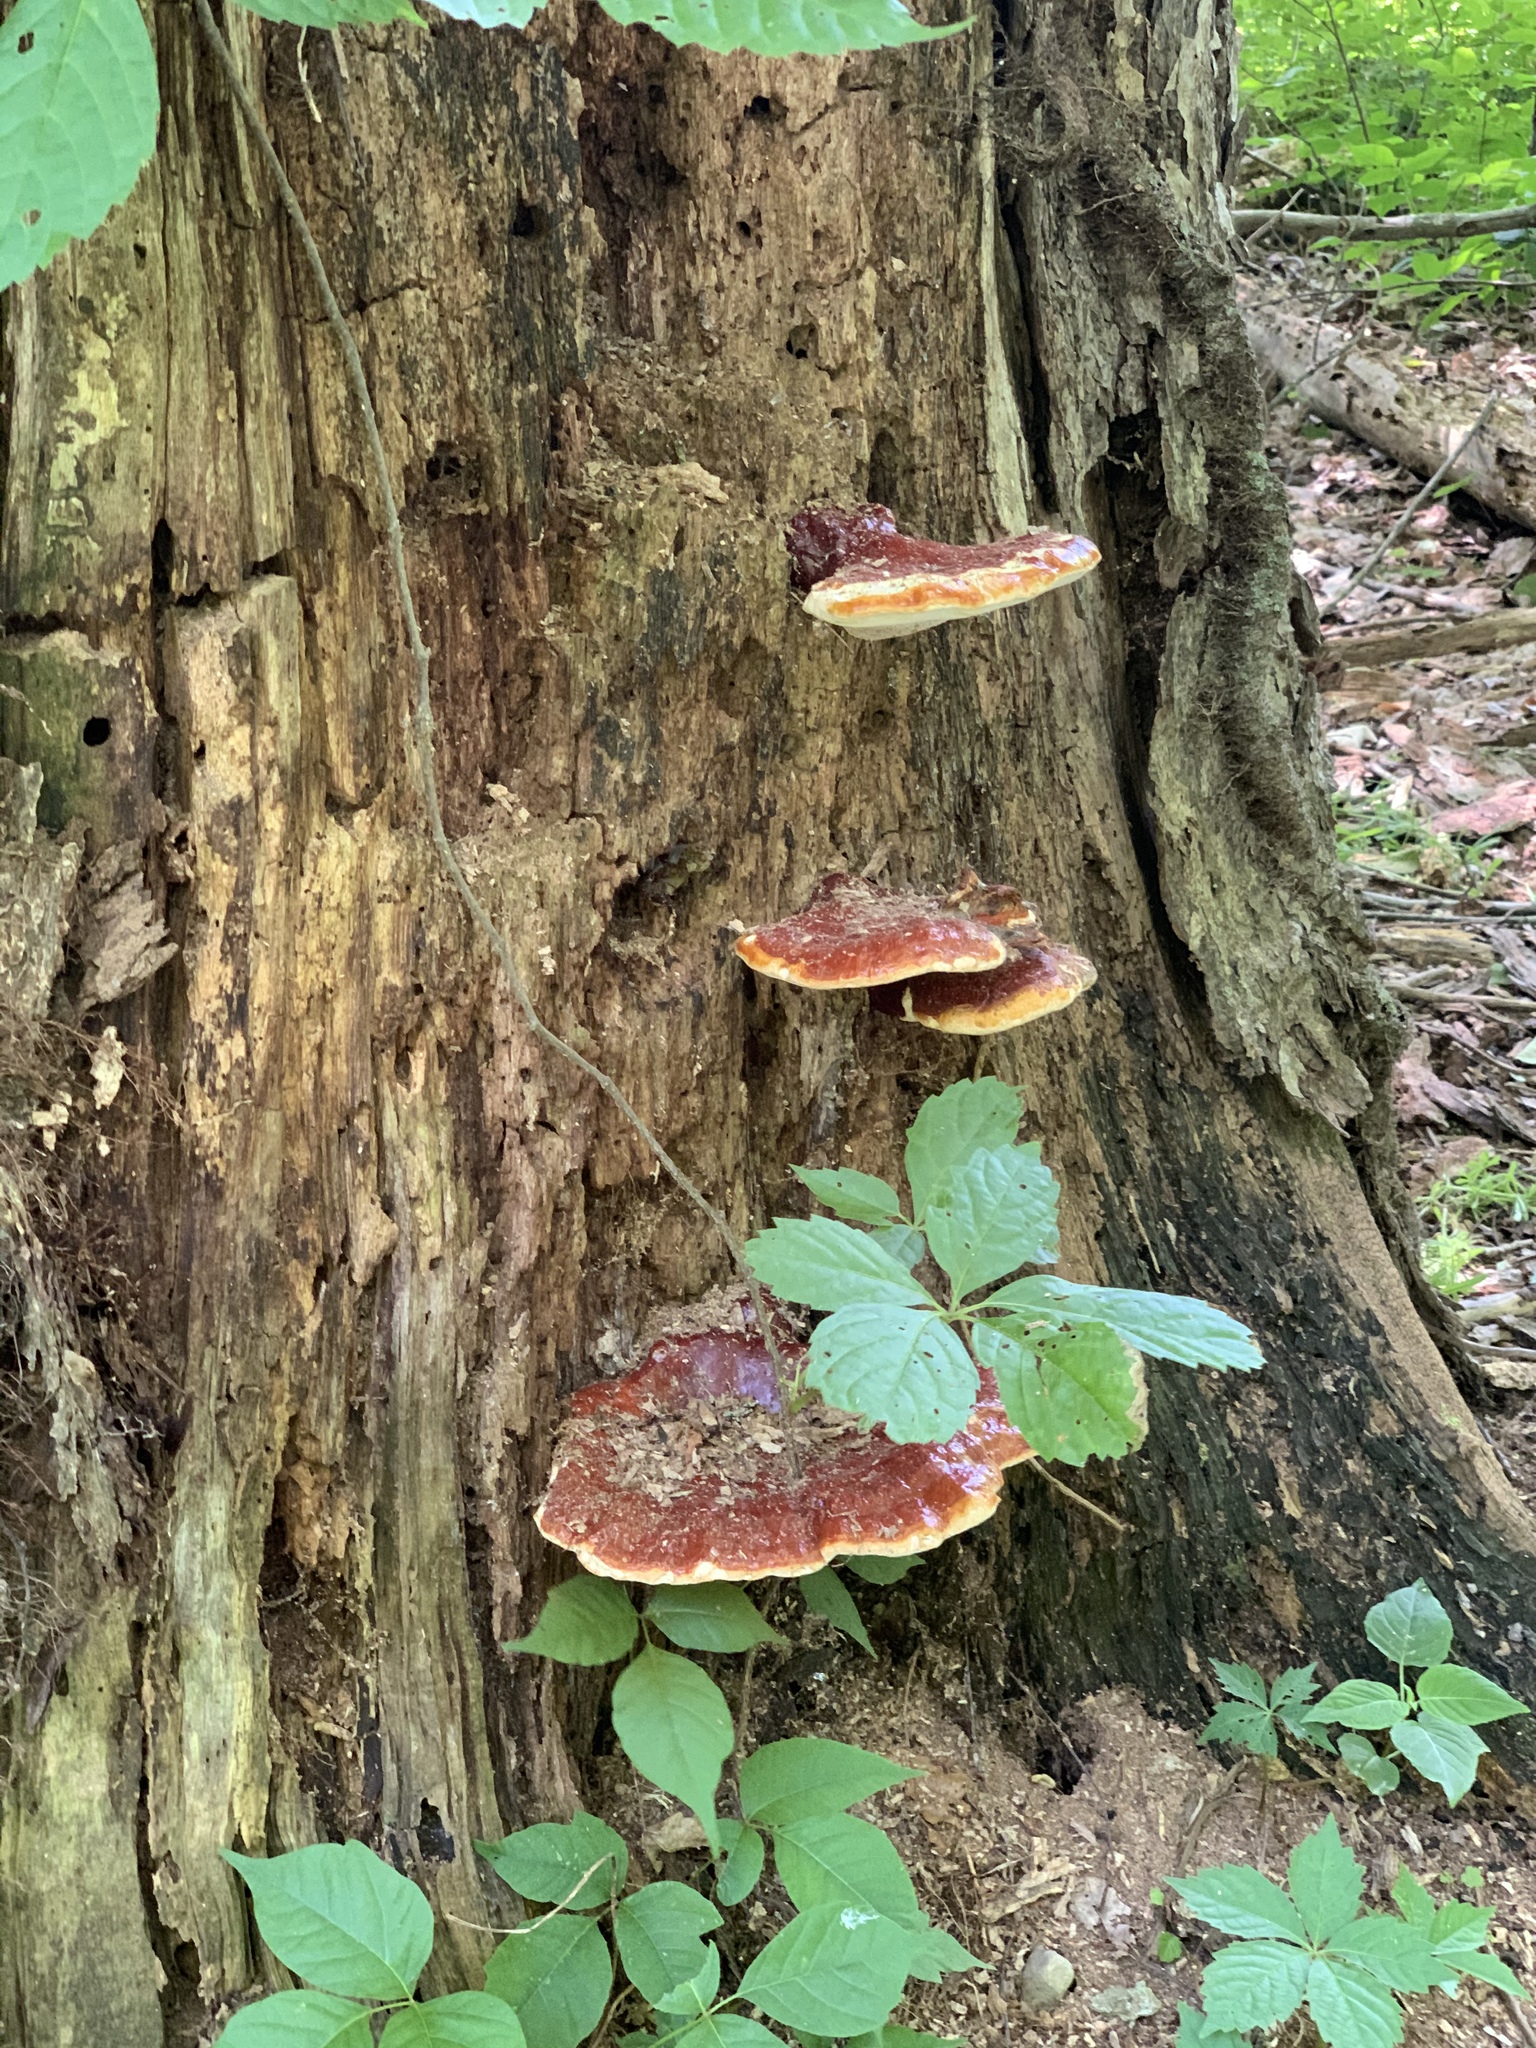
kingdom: Fungi
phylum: Basidiomycota
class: Agaricomycetes
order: Polyporales
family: Polyporaceae
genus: Ganoderma
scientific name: Ganoderma tsugae
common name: Hemlock varnish shelf
